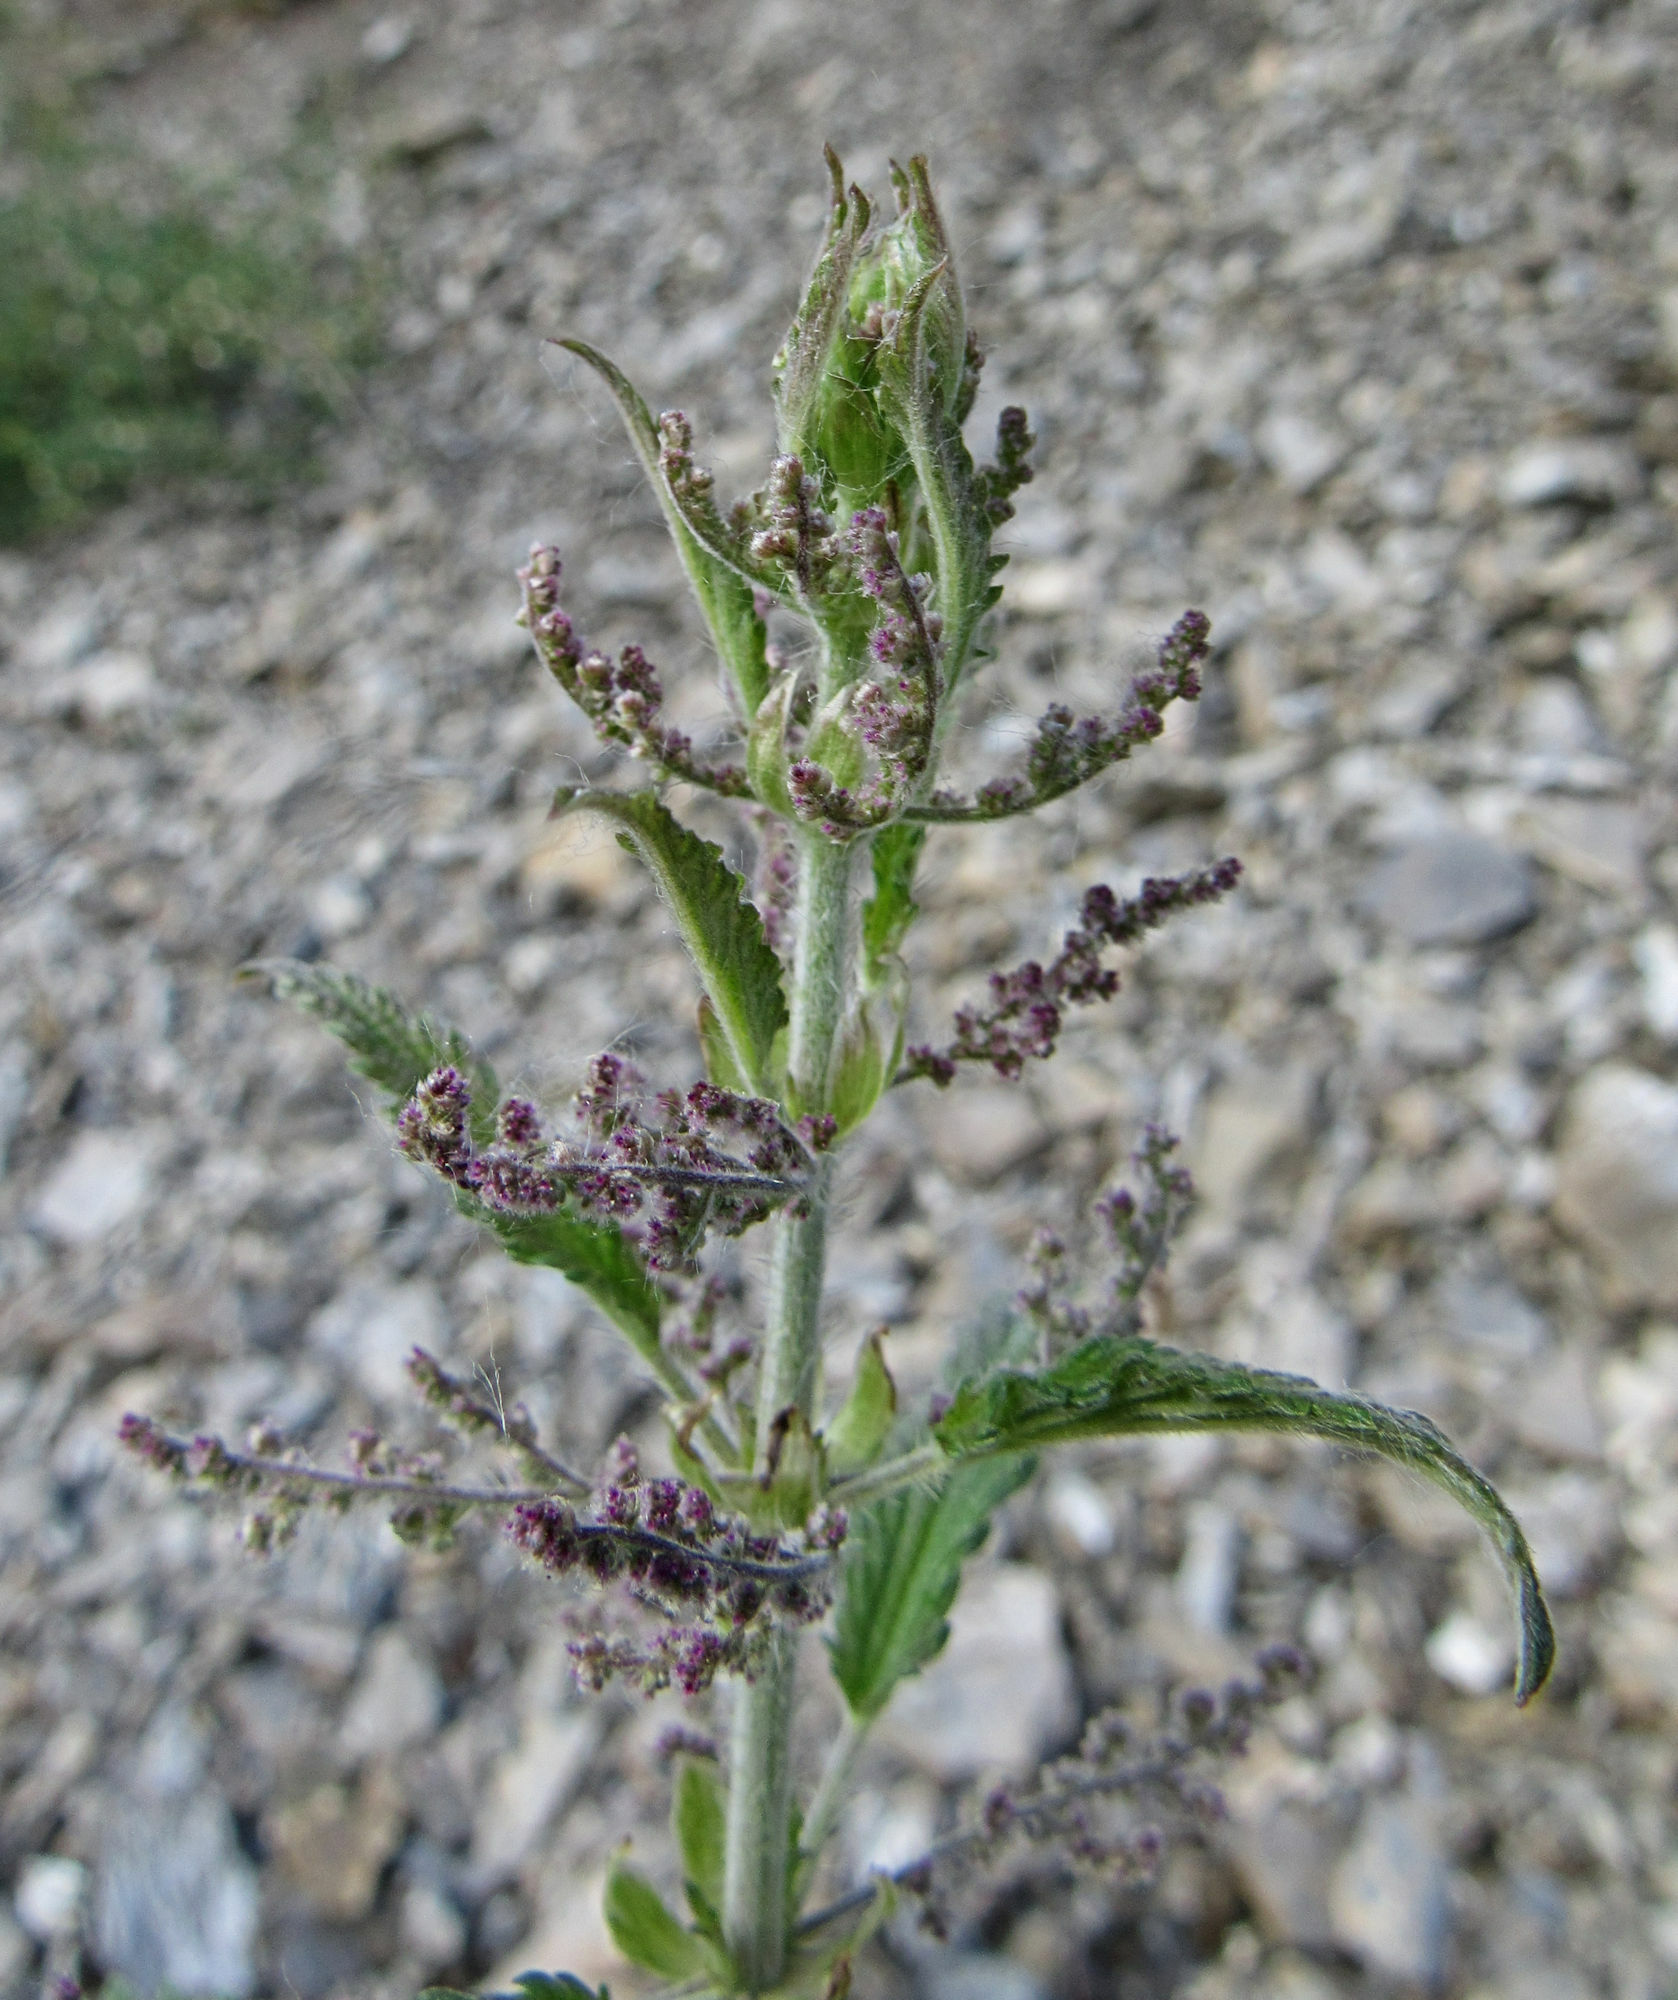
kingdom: Plantae
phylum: Tracheophyta
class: Magnoliopsida
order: Rosales
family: Urticaceae
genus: Urtica
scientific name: Urtica gracilis
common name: Slender stinging nettle
